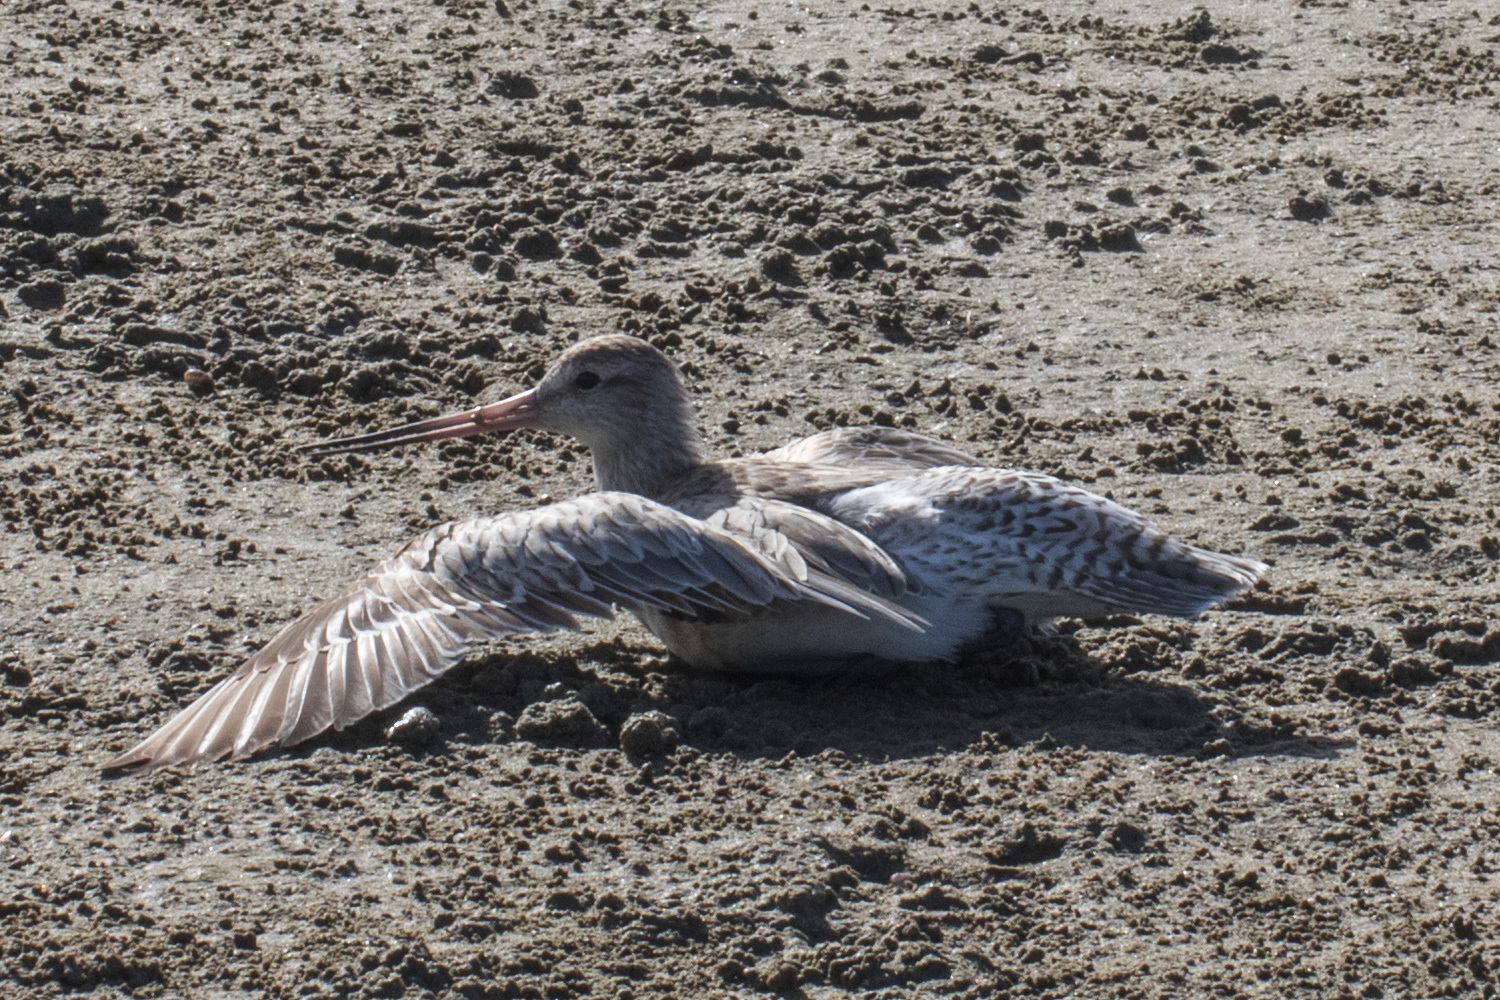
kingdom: Animalia
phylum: Chordata
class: Aves
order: Charadriiformes
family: Scolopacidae
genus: Limosa
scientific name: Limosa lapponica
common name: Bar-tailed godwit
